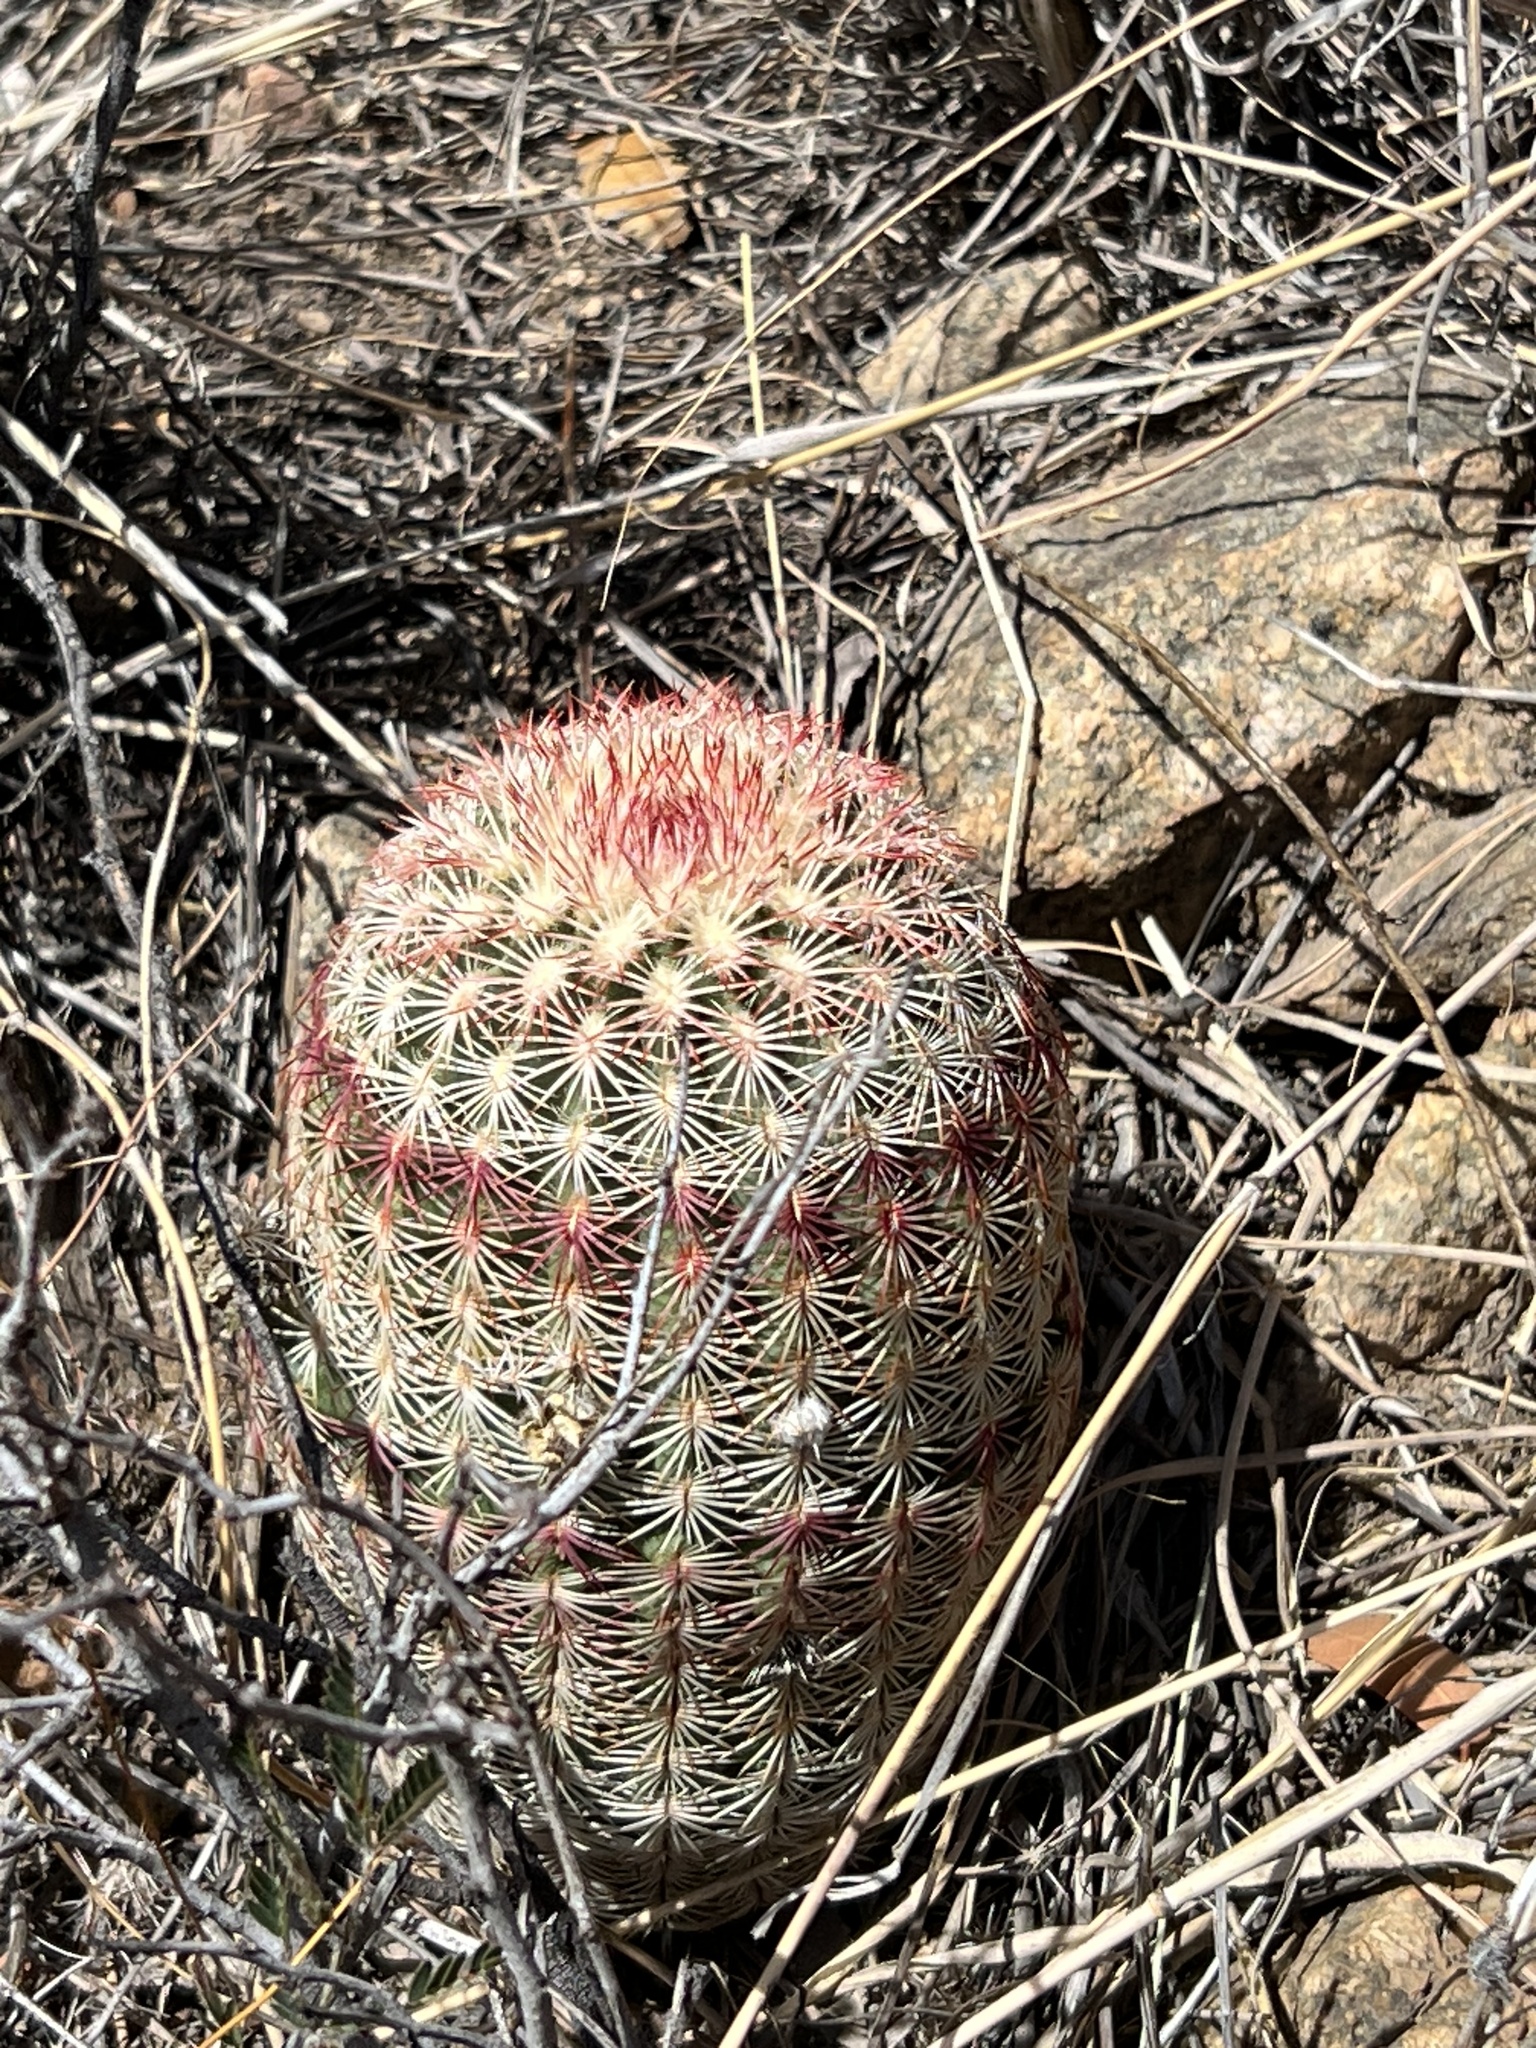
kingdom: Plantae
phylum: Tracheophyta
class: Magnoliopsida
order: Caryophyllales
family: Cactaceae
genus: Echinocereus
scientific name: Echinocereus rigidissimus
